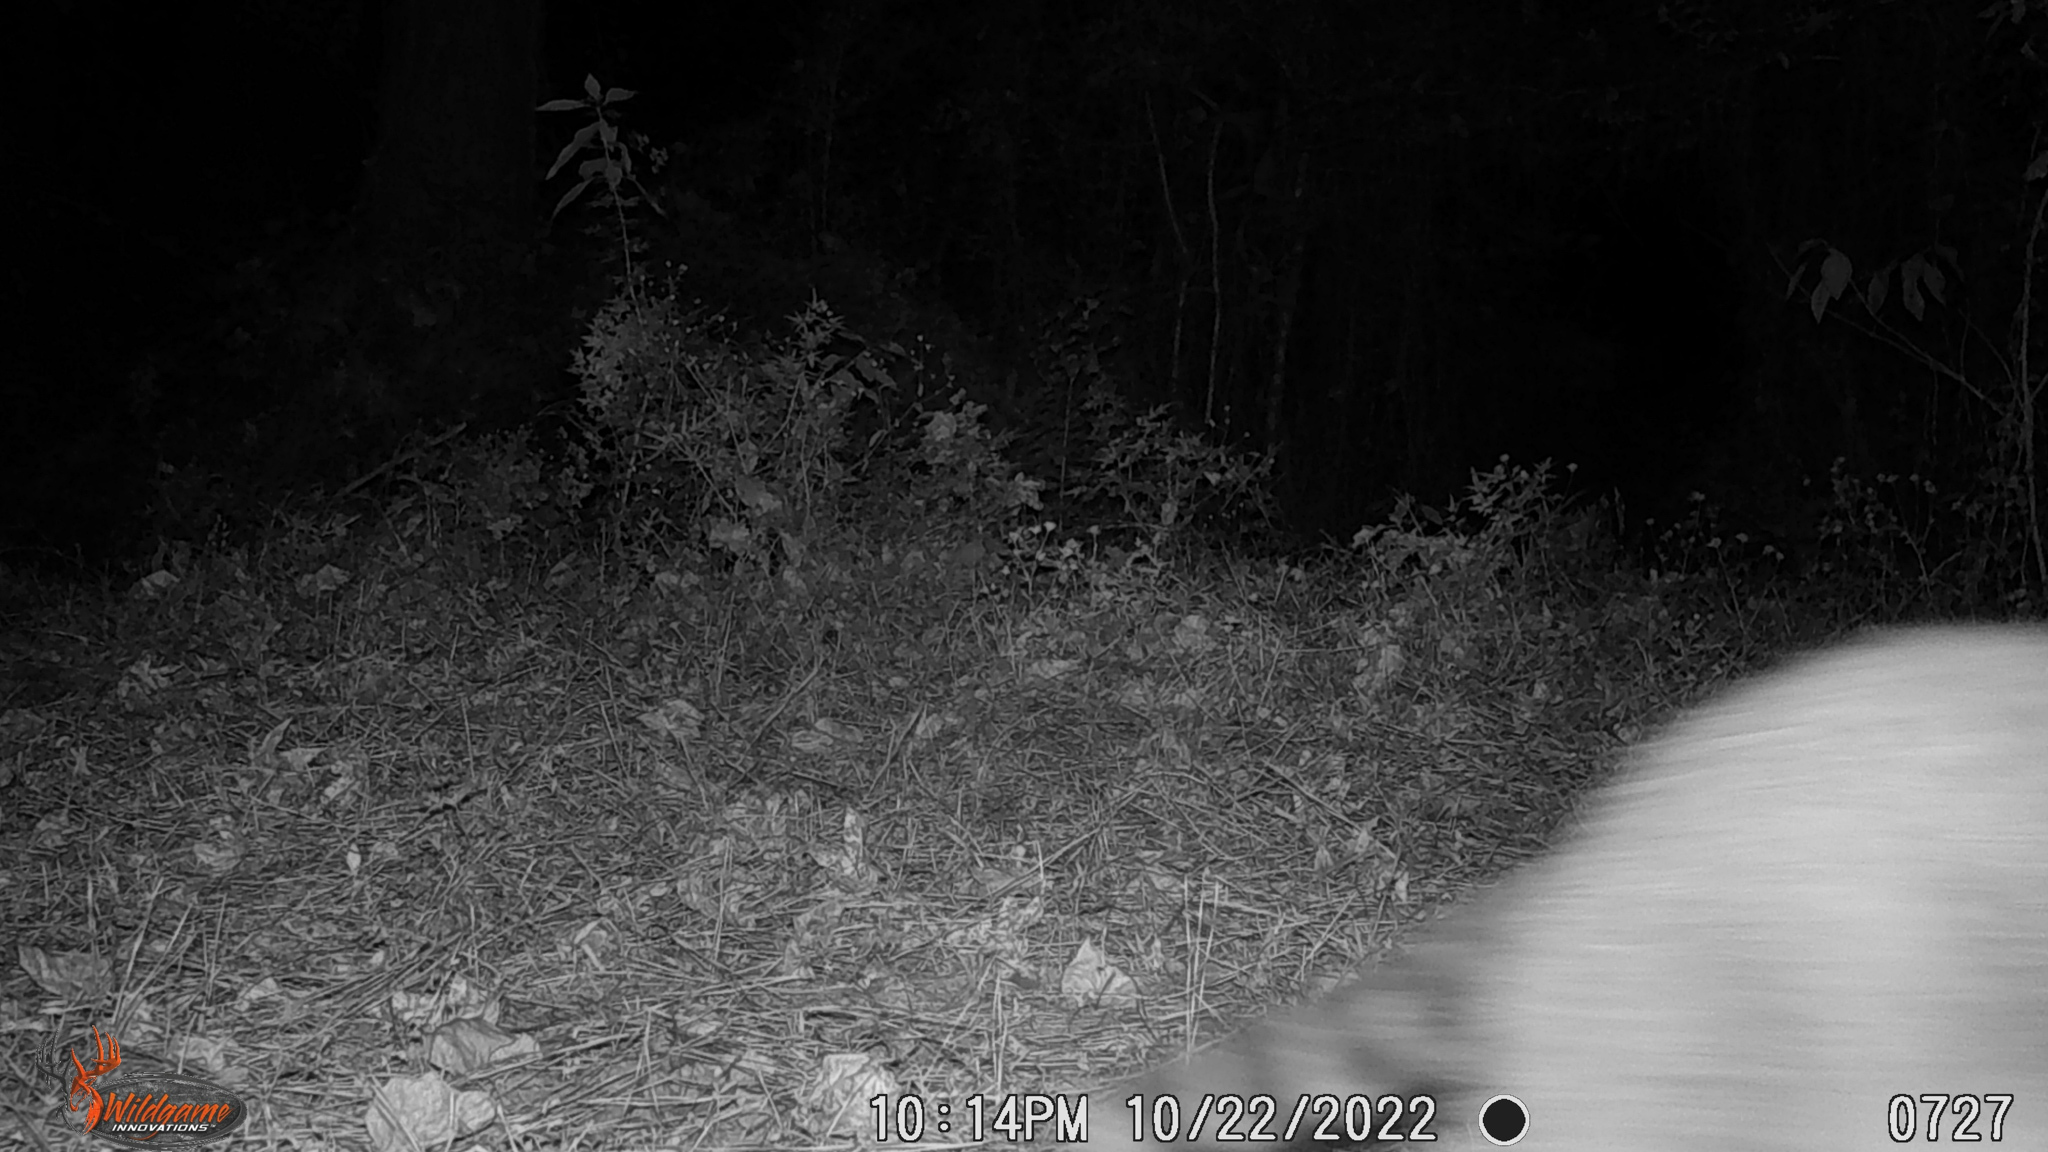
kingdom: Animalia
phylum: Chordata
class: Mammalia
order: Carnivora
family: Procyonidae
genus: Procyon
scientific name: Procyon lotor
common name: Raccoon
